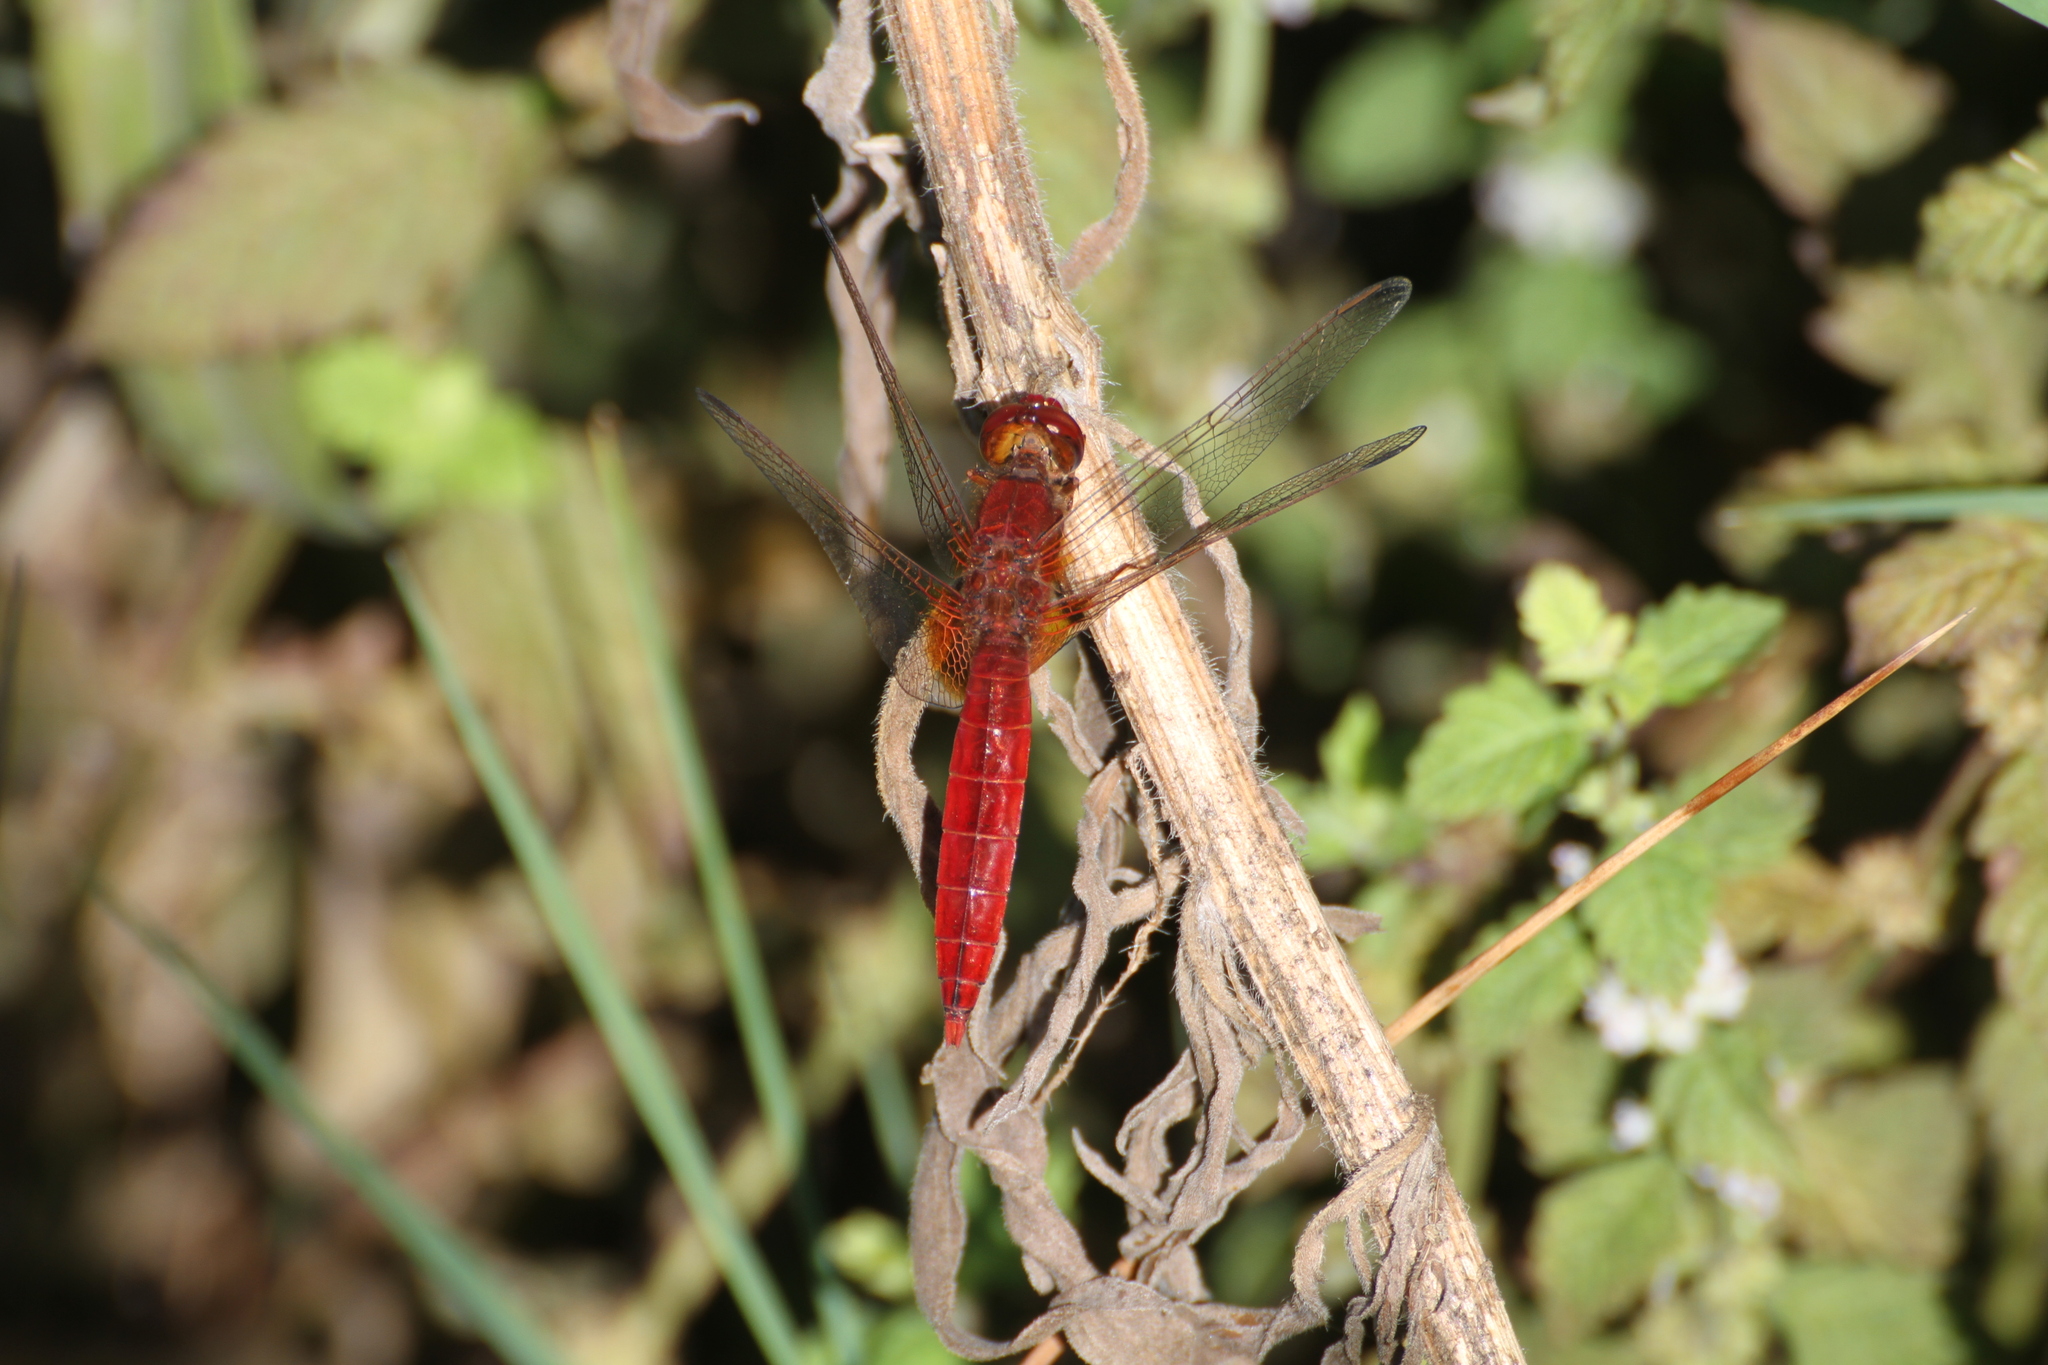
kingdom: Animalia
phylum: Arthropoda
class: Insecta
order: Odonata
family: Libellulidae
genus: Crocothemis
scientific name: Crocothemis erythraea
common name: Scarlet dragonfly
